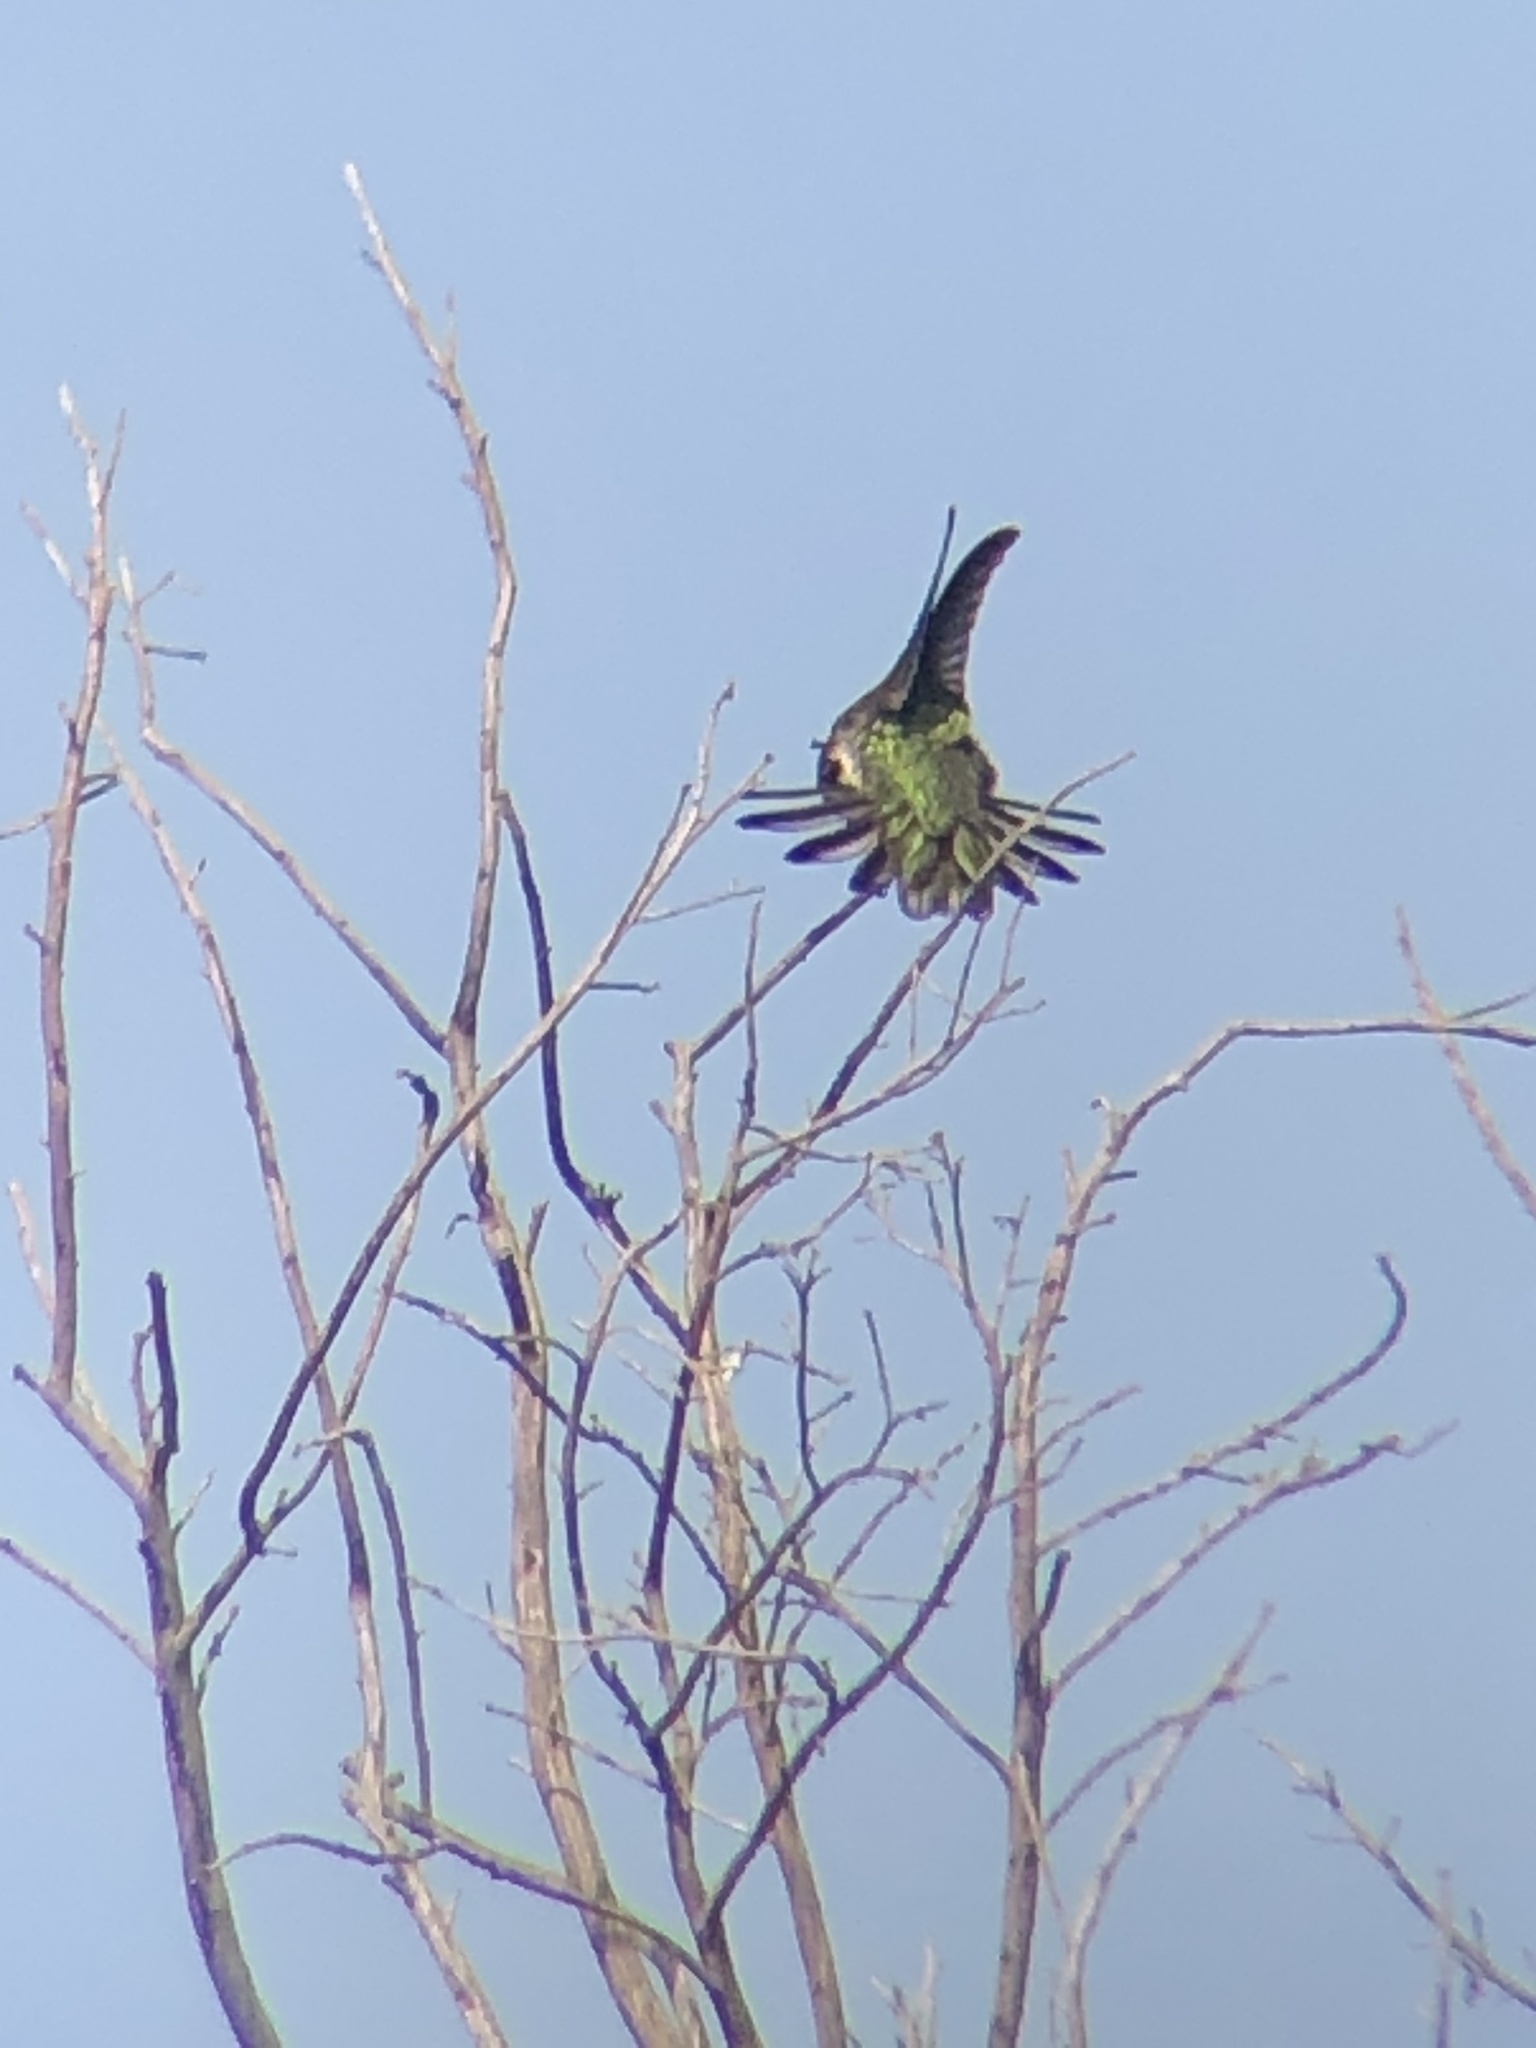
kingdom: Animalia
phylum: Chordata
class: Aves
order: Apodiformes
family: Trochilidae
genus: Calypte
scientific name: Calypte anna
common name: Anna's hummingbird
